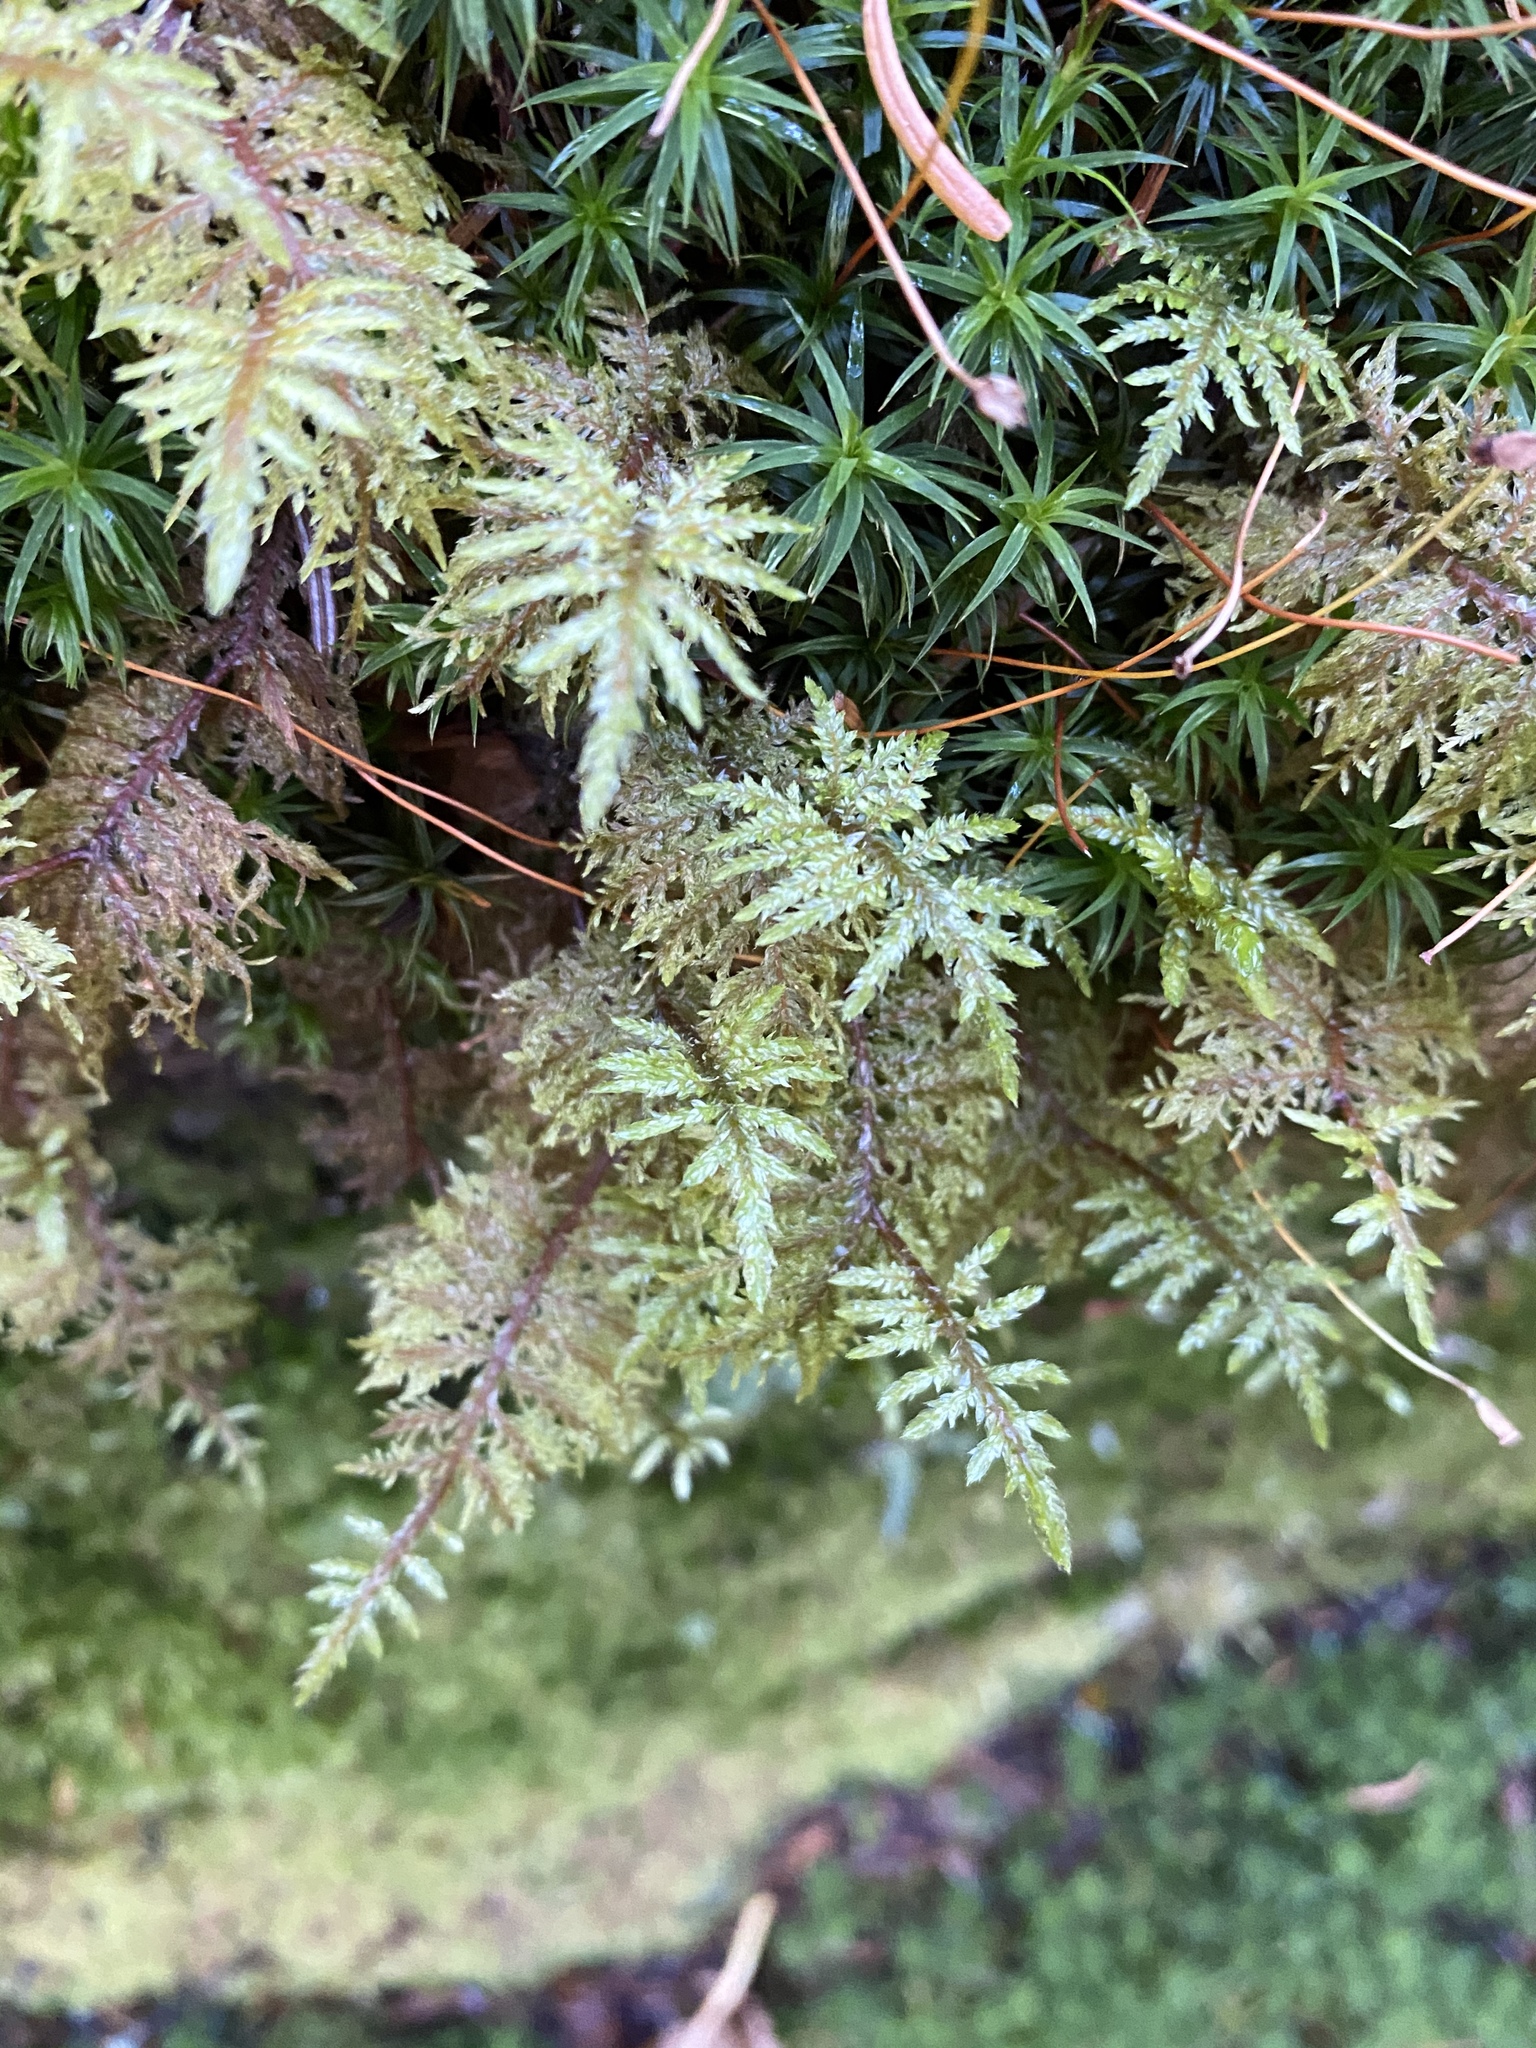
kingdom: Plantae
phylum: Bryophyta
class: Bryopsida
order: Hypnales
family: Hylocomiaceae
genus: Hylocomium
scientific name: Hylocomium splendens
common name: Stairstep moss
